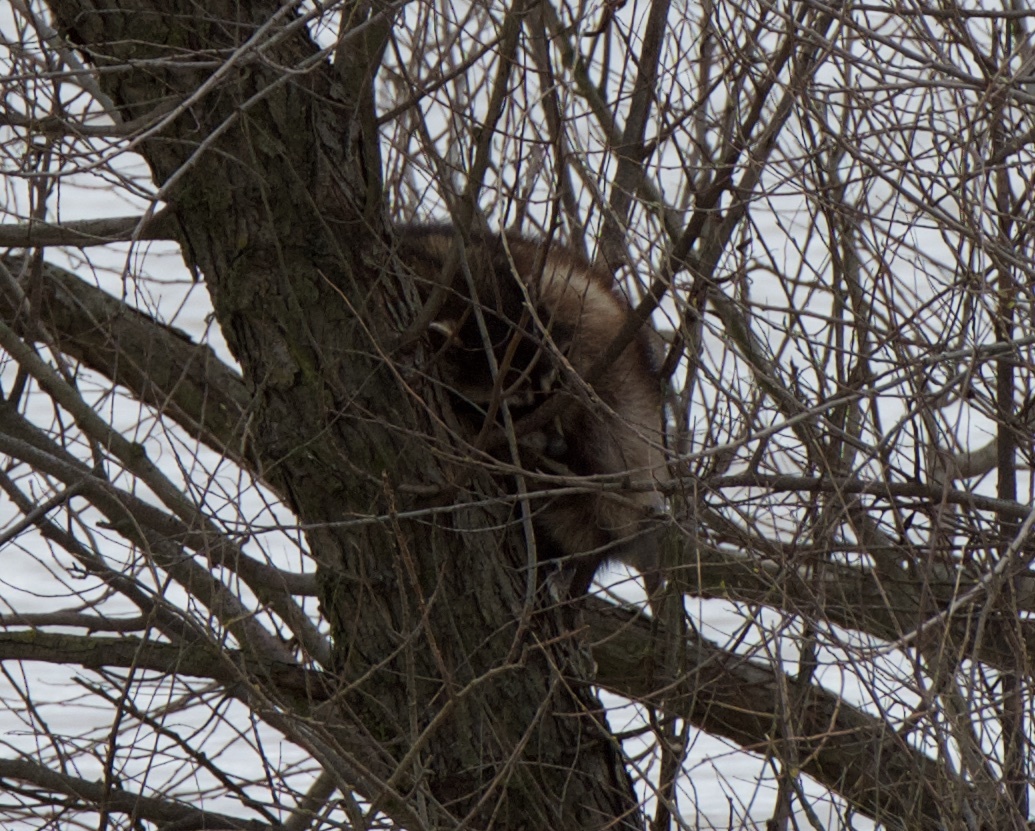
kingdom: Animalia
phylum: Chordata
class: Mammalia
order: Carnivora
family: Procyonidae
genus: Procyon
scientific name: Procyon lotor
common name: Raccoon
